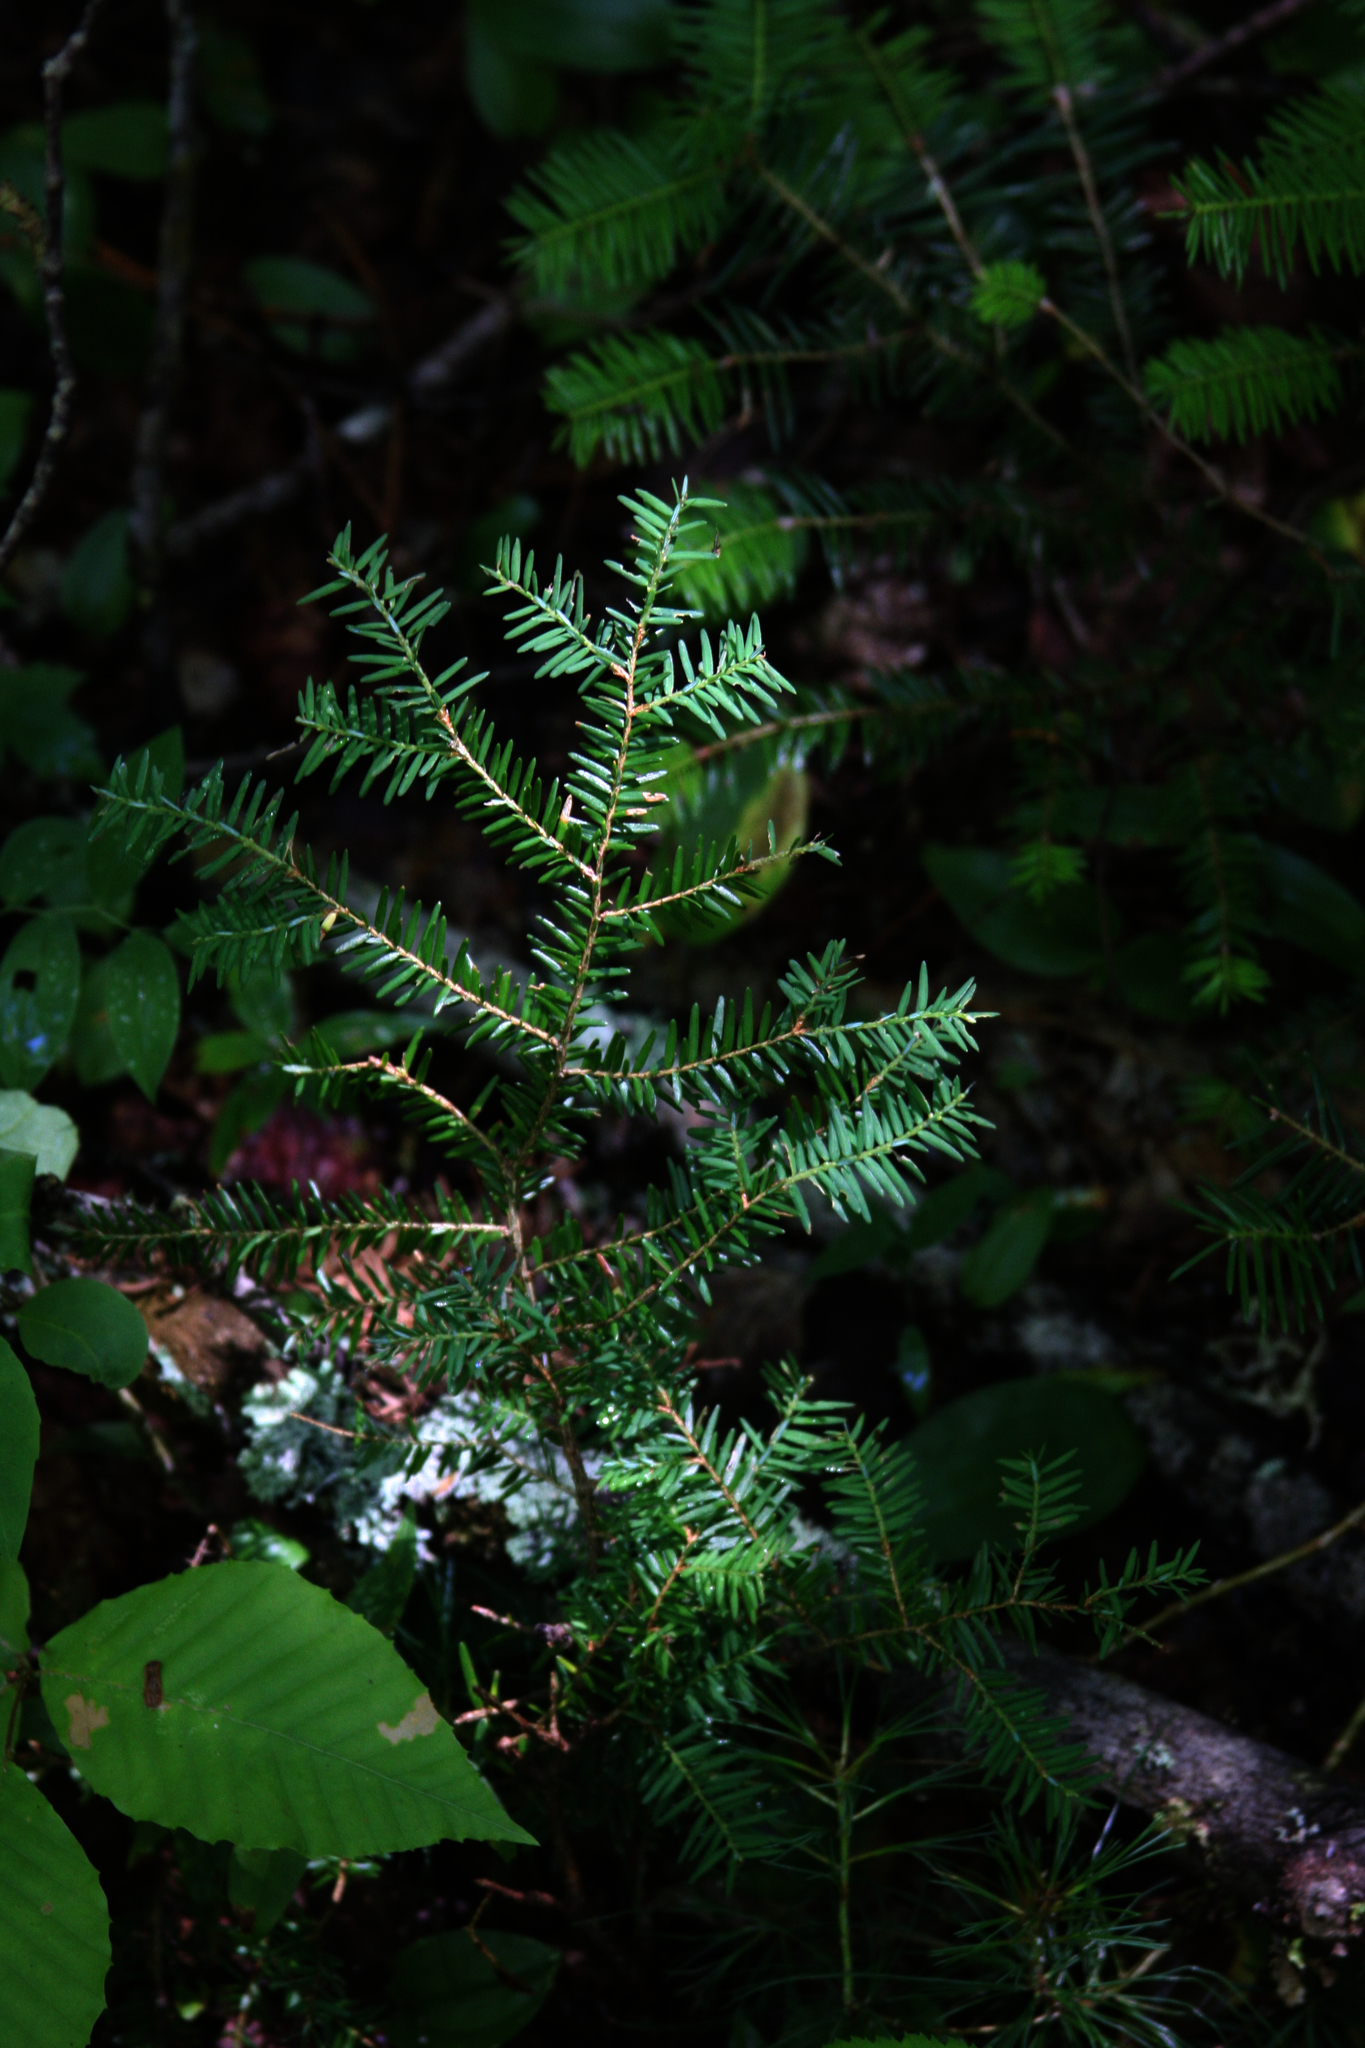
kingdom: Plantae
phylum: Tracheophyta
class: Pinopsida
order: Pinales
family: Pinaceae
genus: Tsuga
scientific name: Tsuga canadensis
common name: Eastern hemlock
